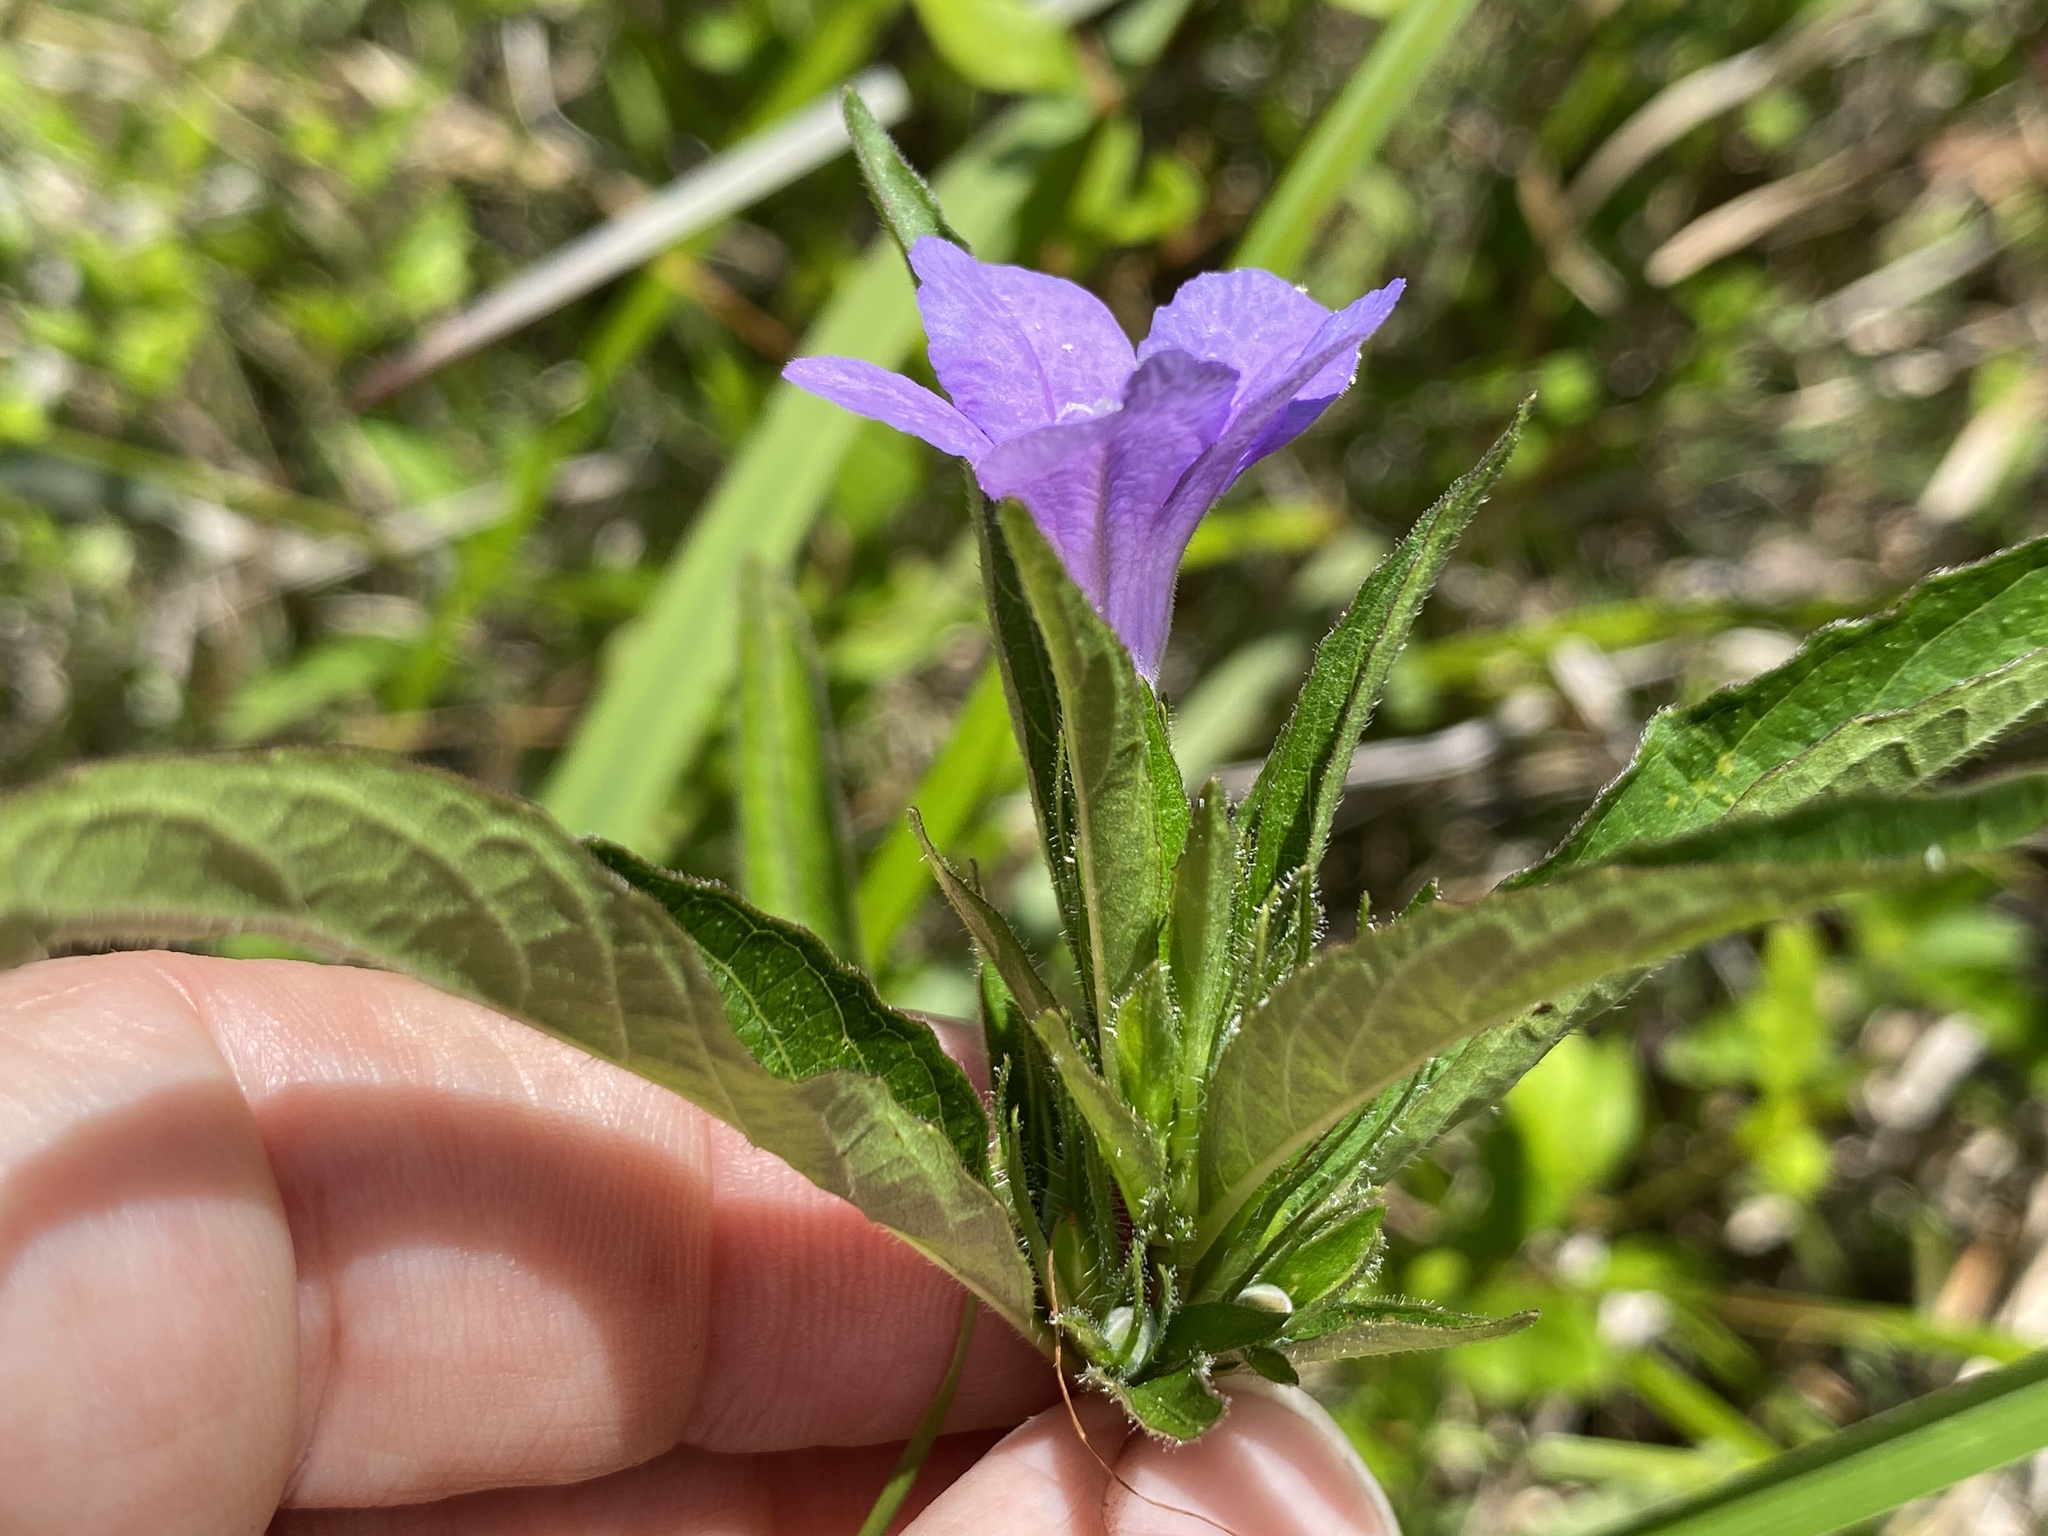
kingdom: Plantae
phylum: Tracheophyta
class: Magnoliopsida
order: Lamiales
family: Acanthaceae
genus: Ruellia
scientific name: Ruellia caroliniensis
